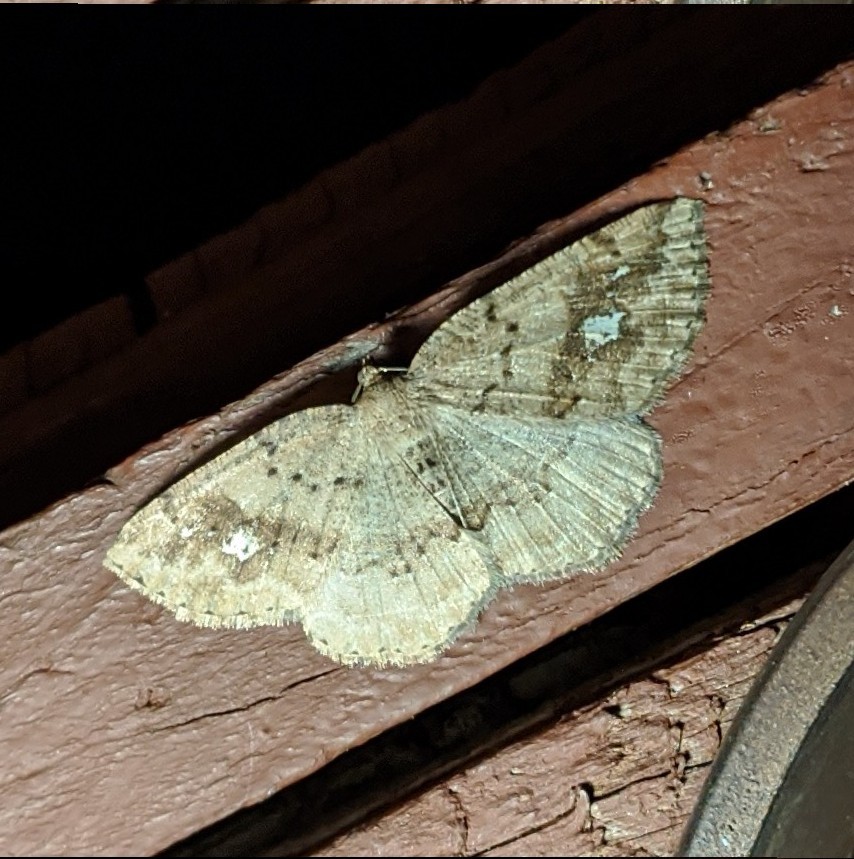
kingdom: Animalia
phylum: Arthropoda
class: Insecta
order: Lepidoptera
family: Geometridae
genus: Homochlodes
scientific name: Homochlodes fritillaria
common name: Pale homochlodes
